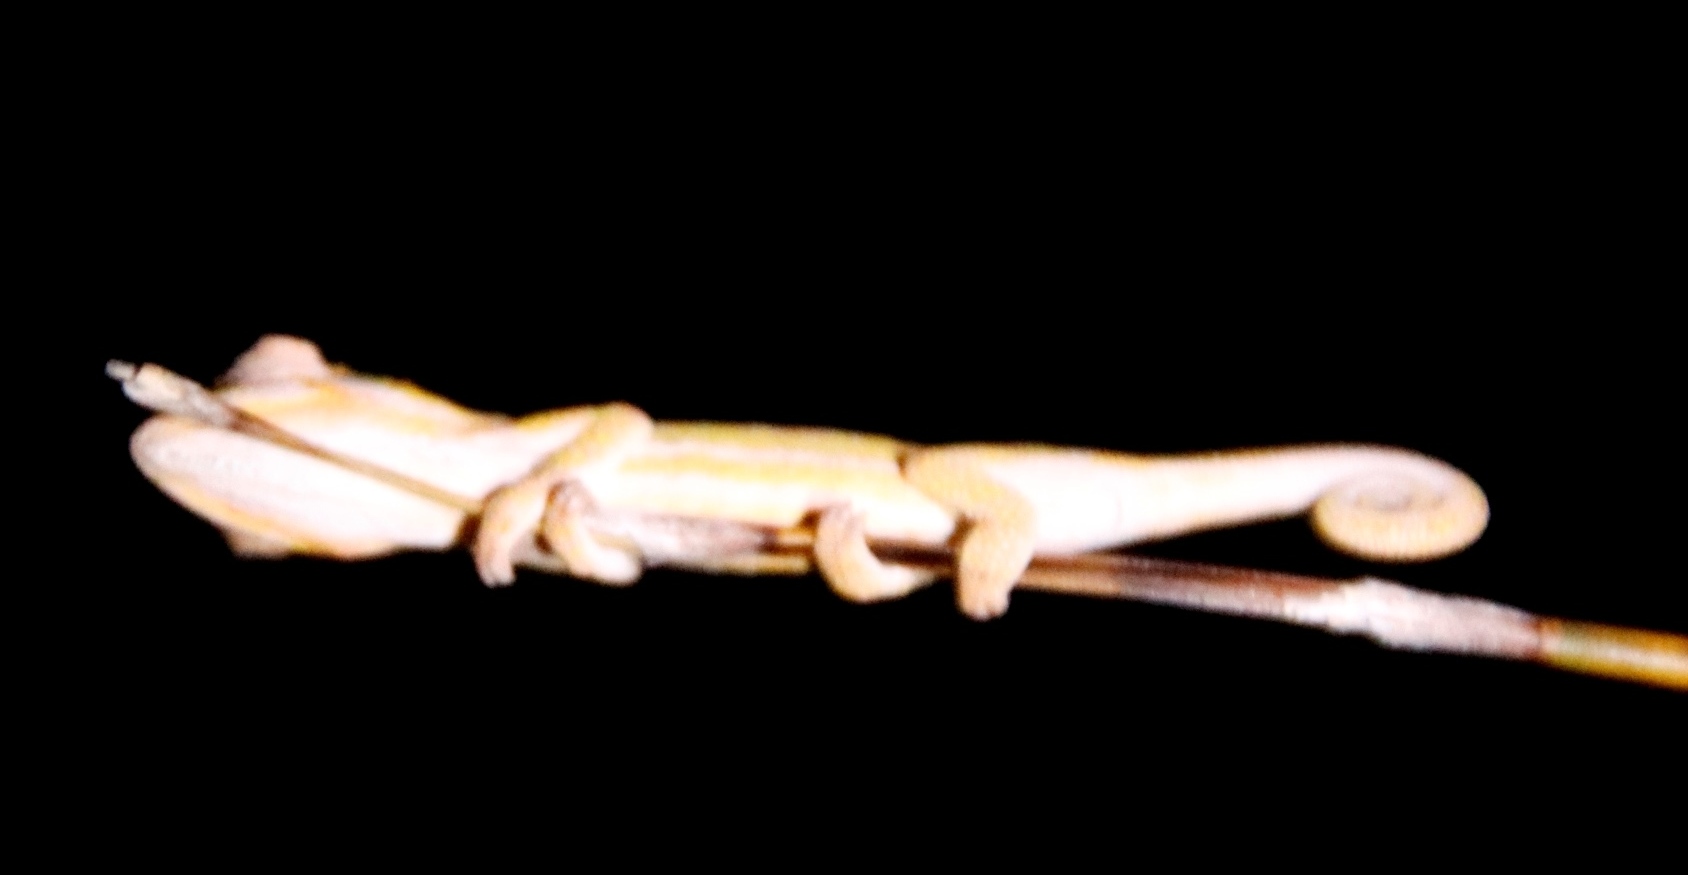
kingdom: Animalia
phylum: Chordata
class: Squamata
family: Chamaeleonidae
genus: Bradypodion
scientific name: Bradypodion pumilum
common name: Cape dwarf chameleon
